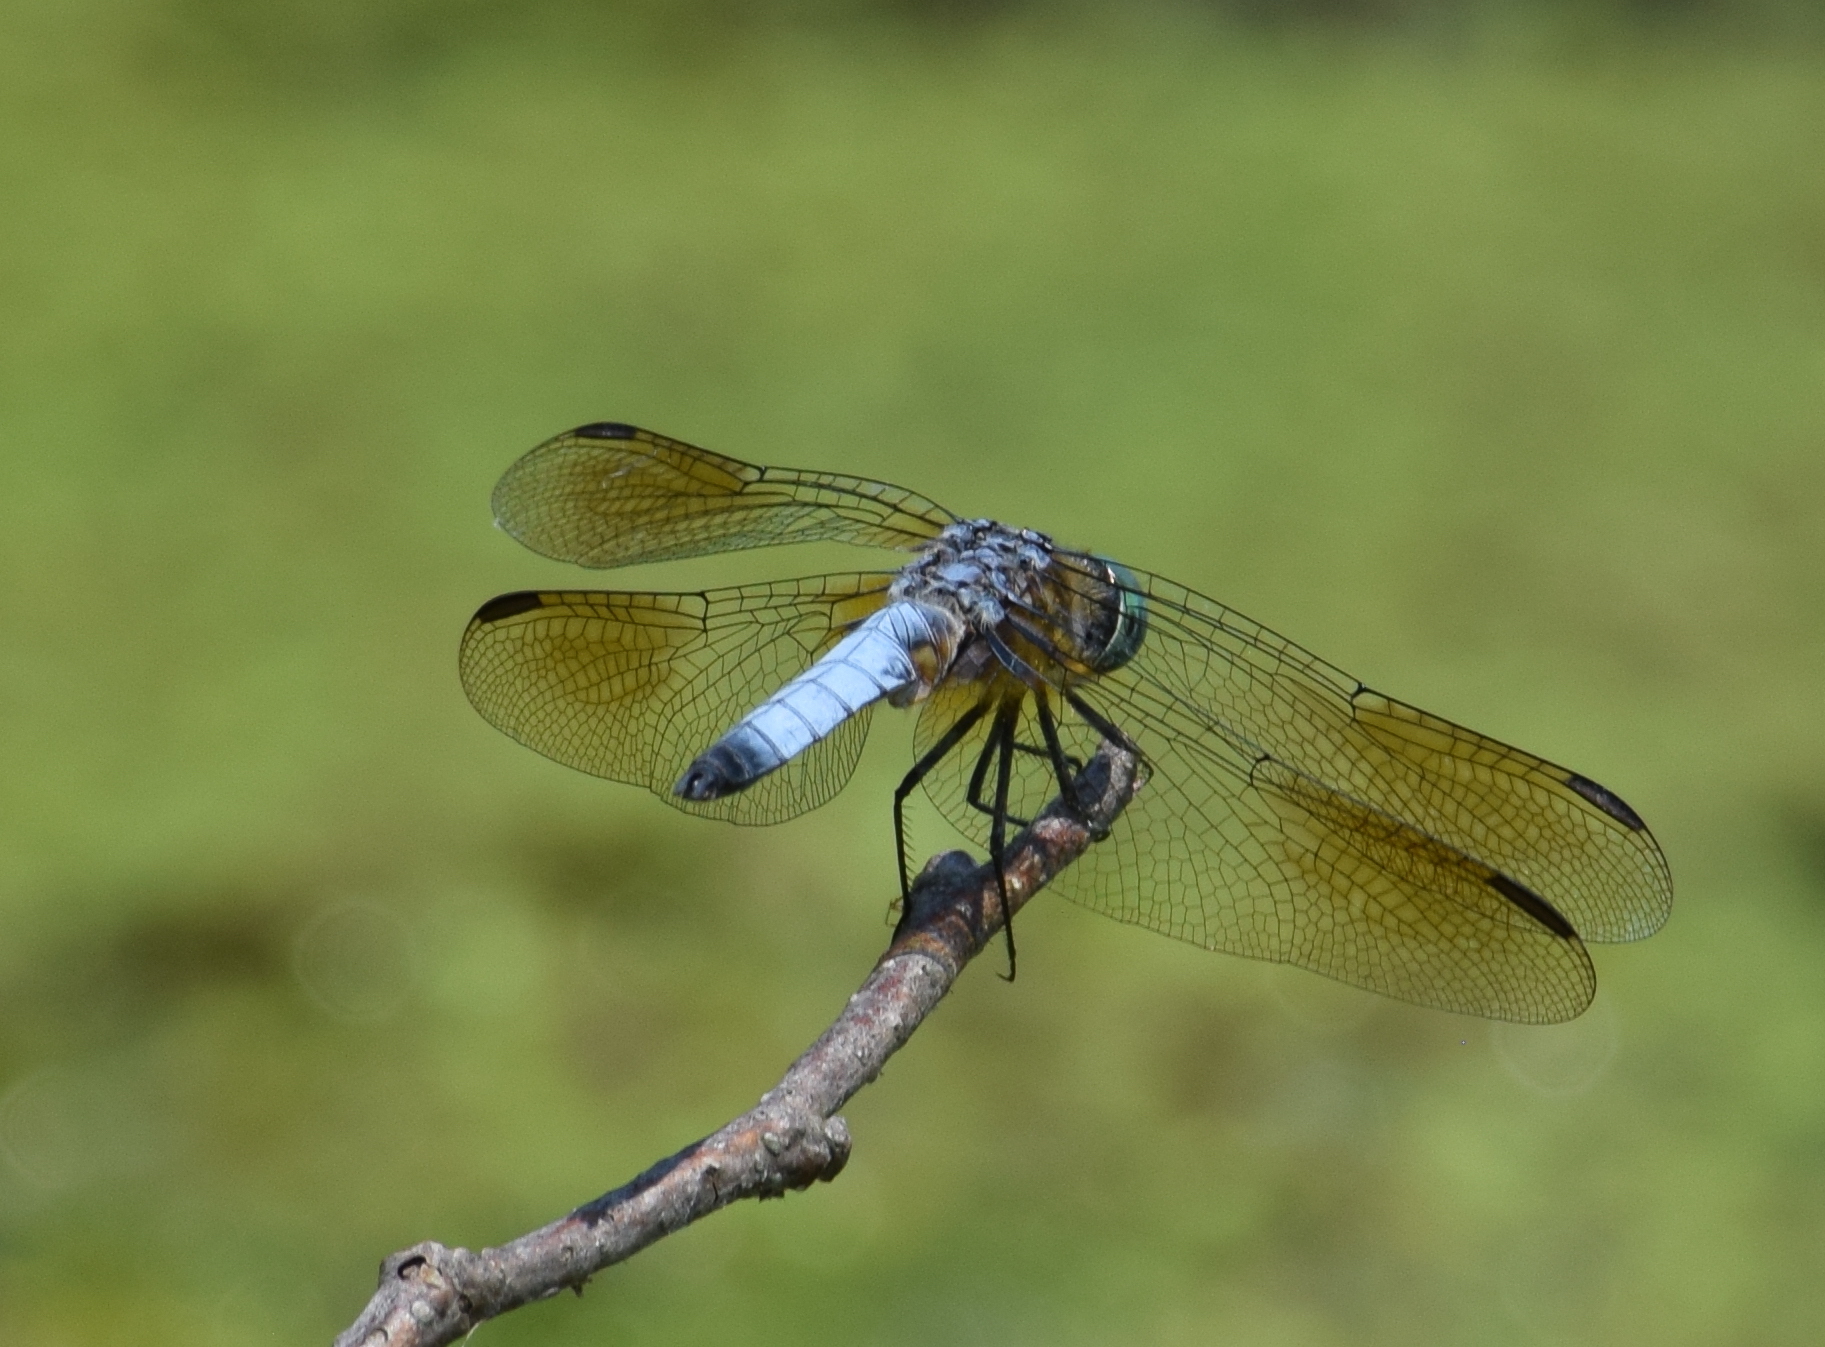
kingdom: Animalia
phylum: Arthropoda
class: Insecta
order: Odonata
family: Libellulidae
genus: Pachydiplax
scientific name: Pachydiplax longipennis
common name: Blue dasher
